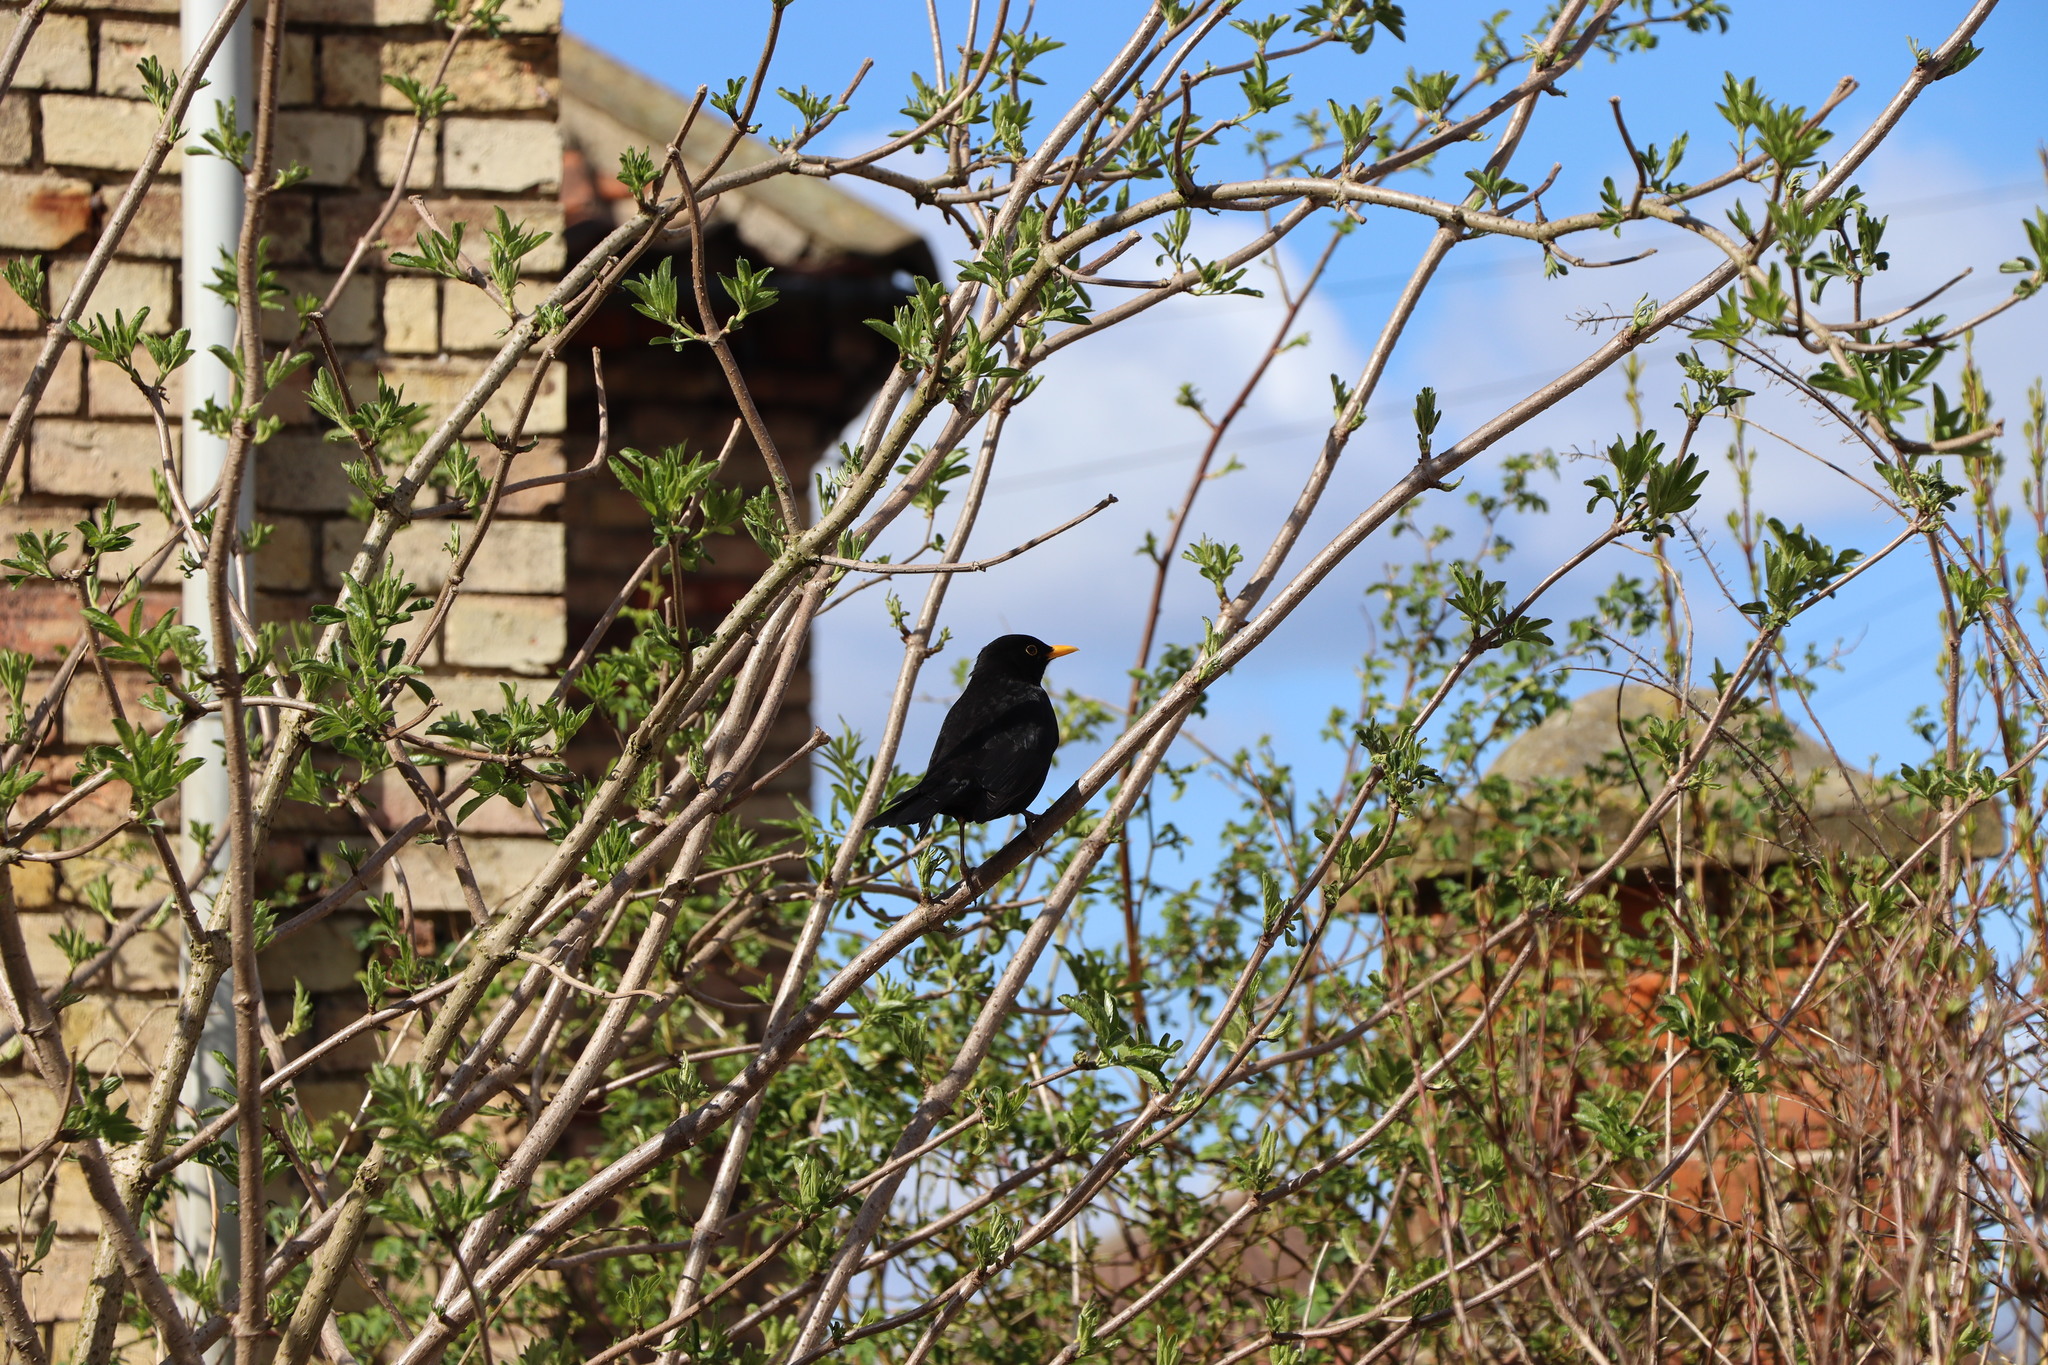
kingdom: Animalia
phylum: Chordata
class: Aves
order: Passeriformes
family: Turdidae
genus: Turdus
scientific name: Turdus merula
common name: Common blackbird
